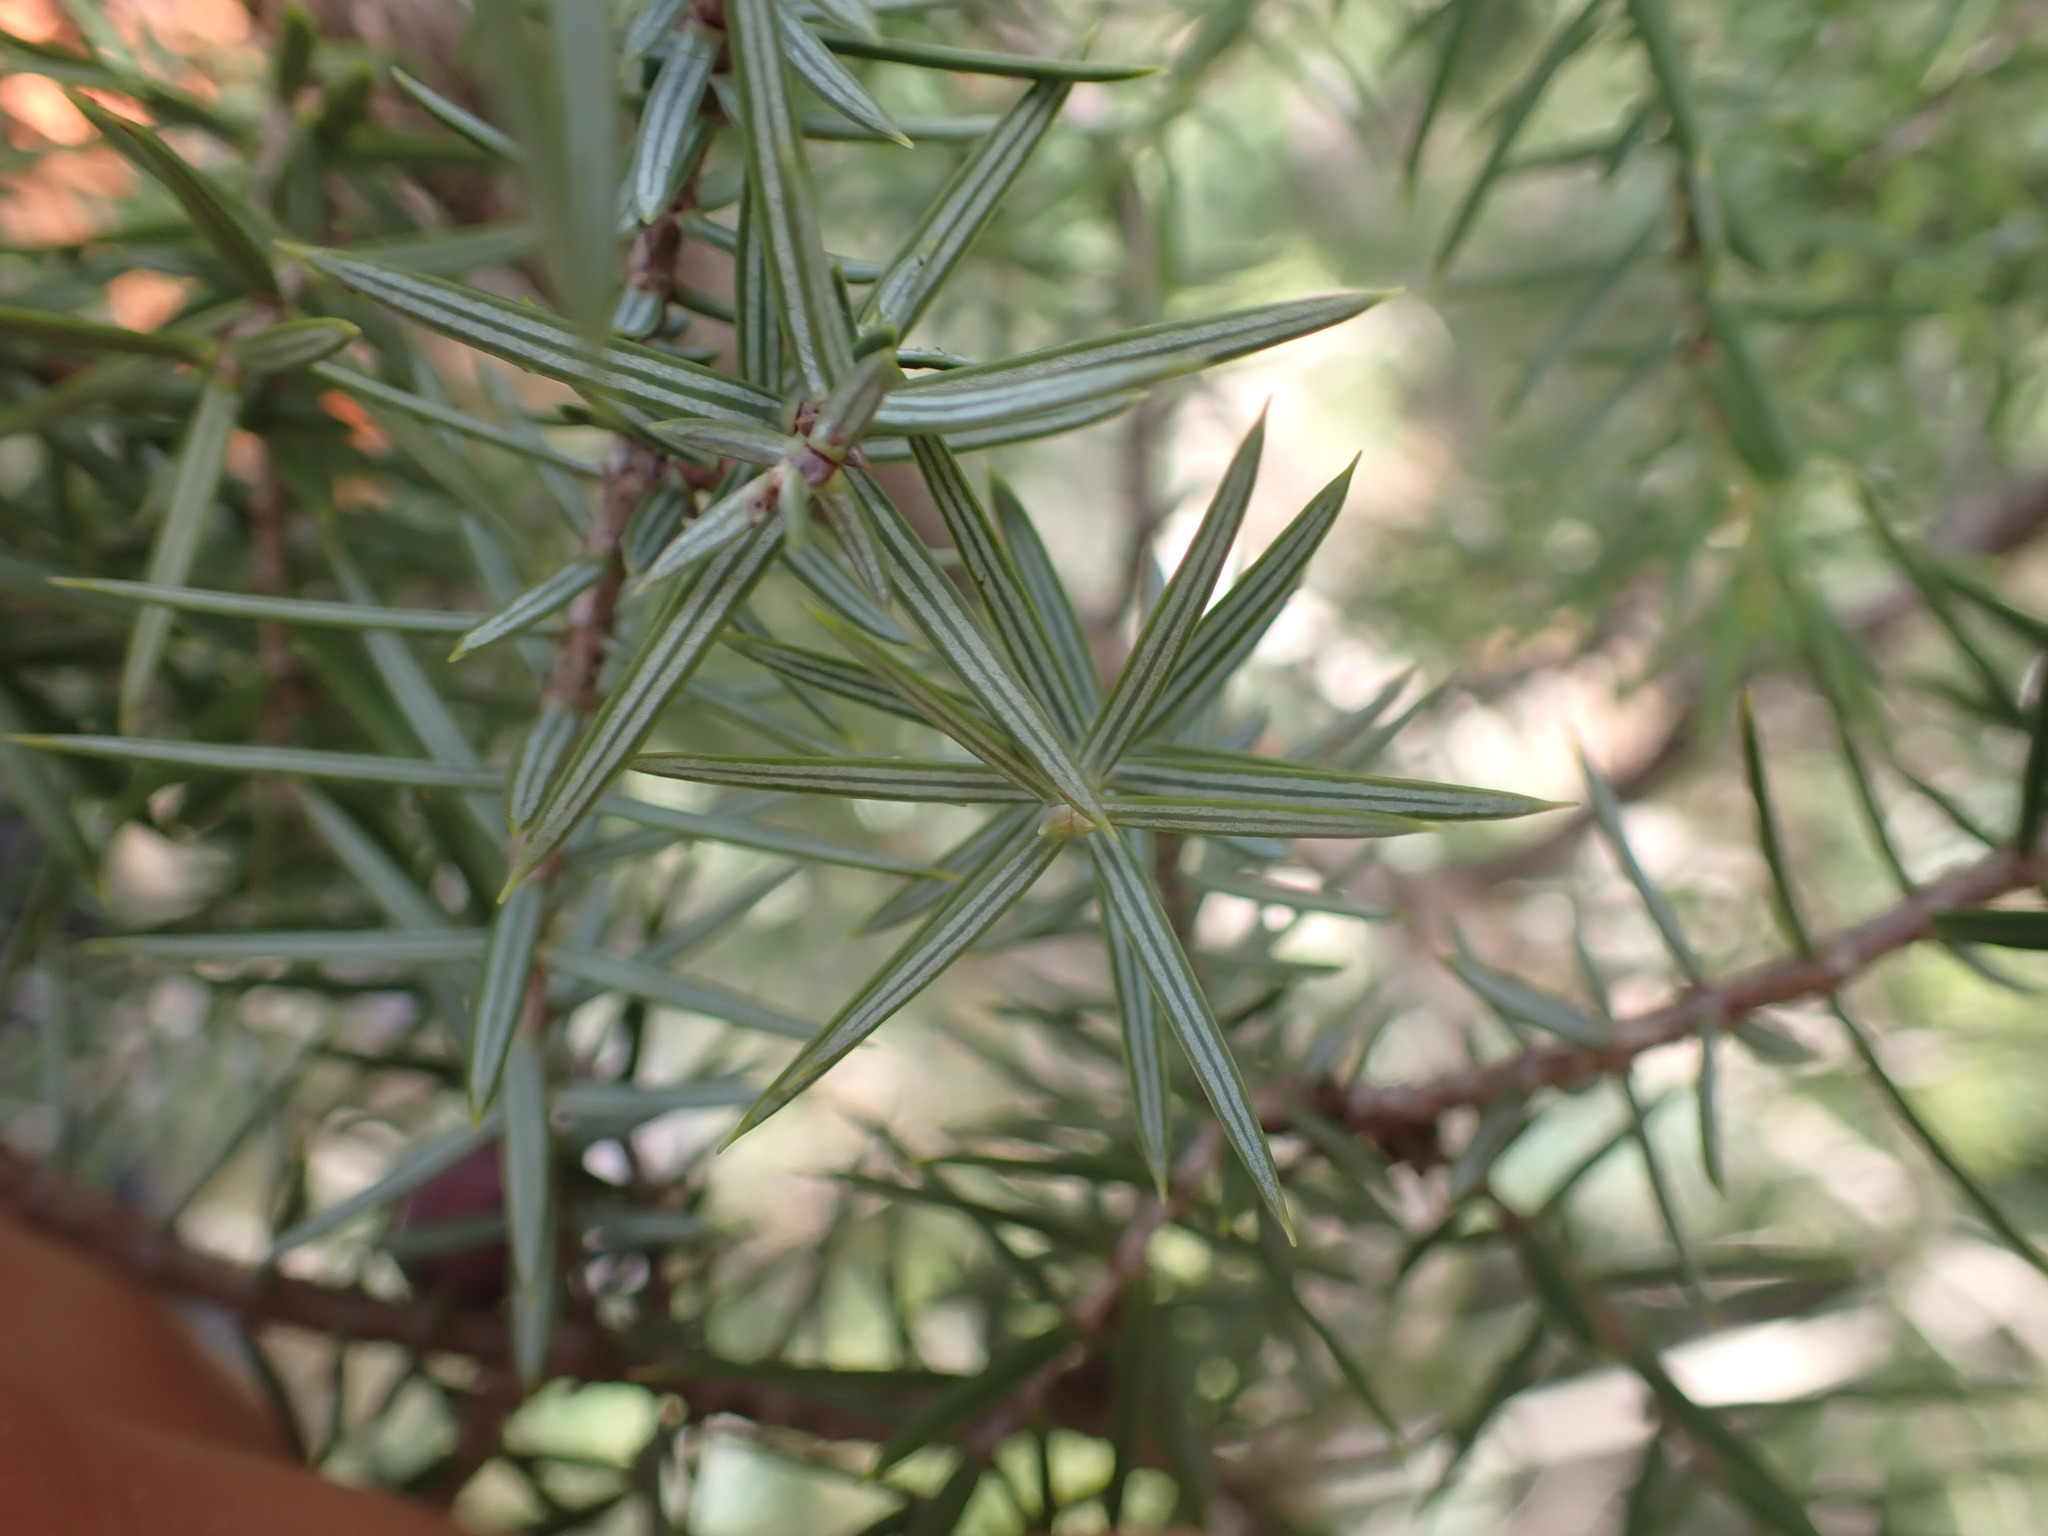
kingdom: Plantae
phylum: Tracheophyta
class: Pinopsida
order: Pinales
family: Cupressaceae
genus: Juniperus
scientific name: Juniperus oxycedrus
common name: Prickly juniper
